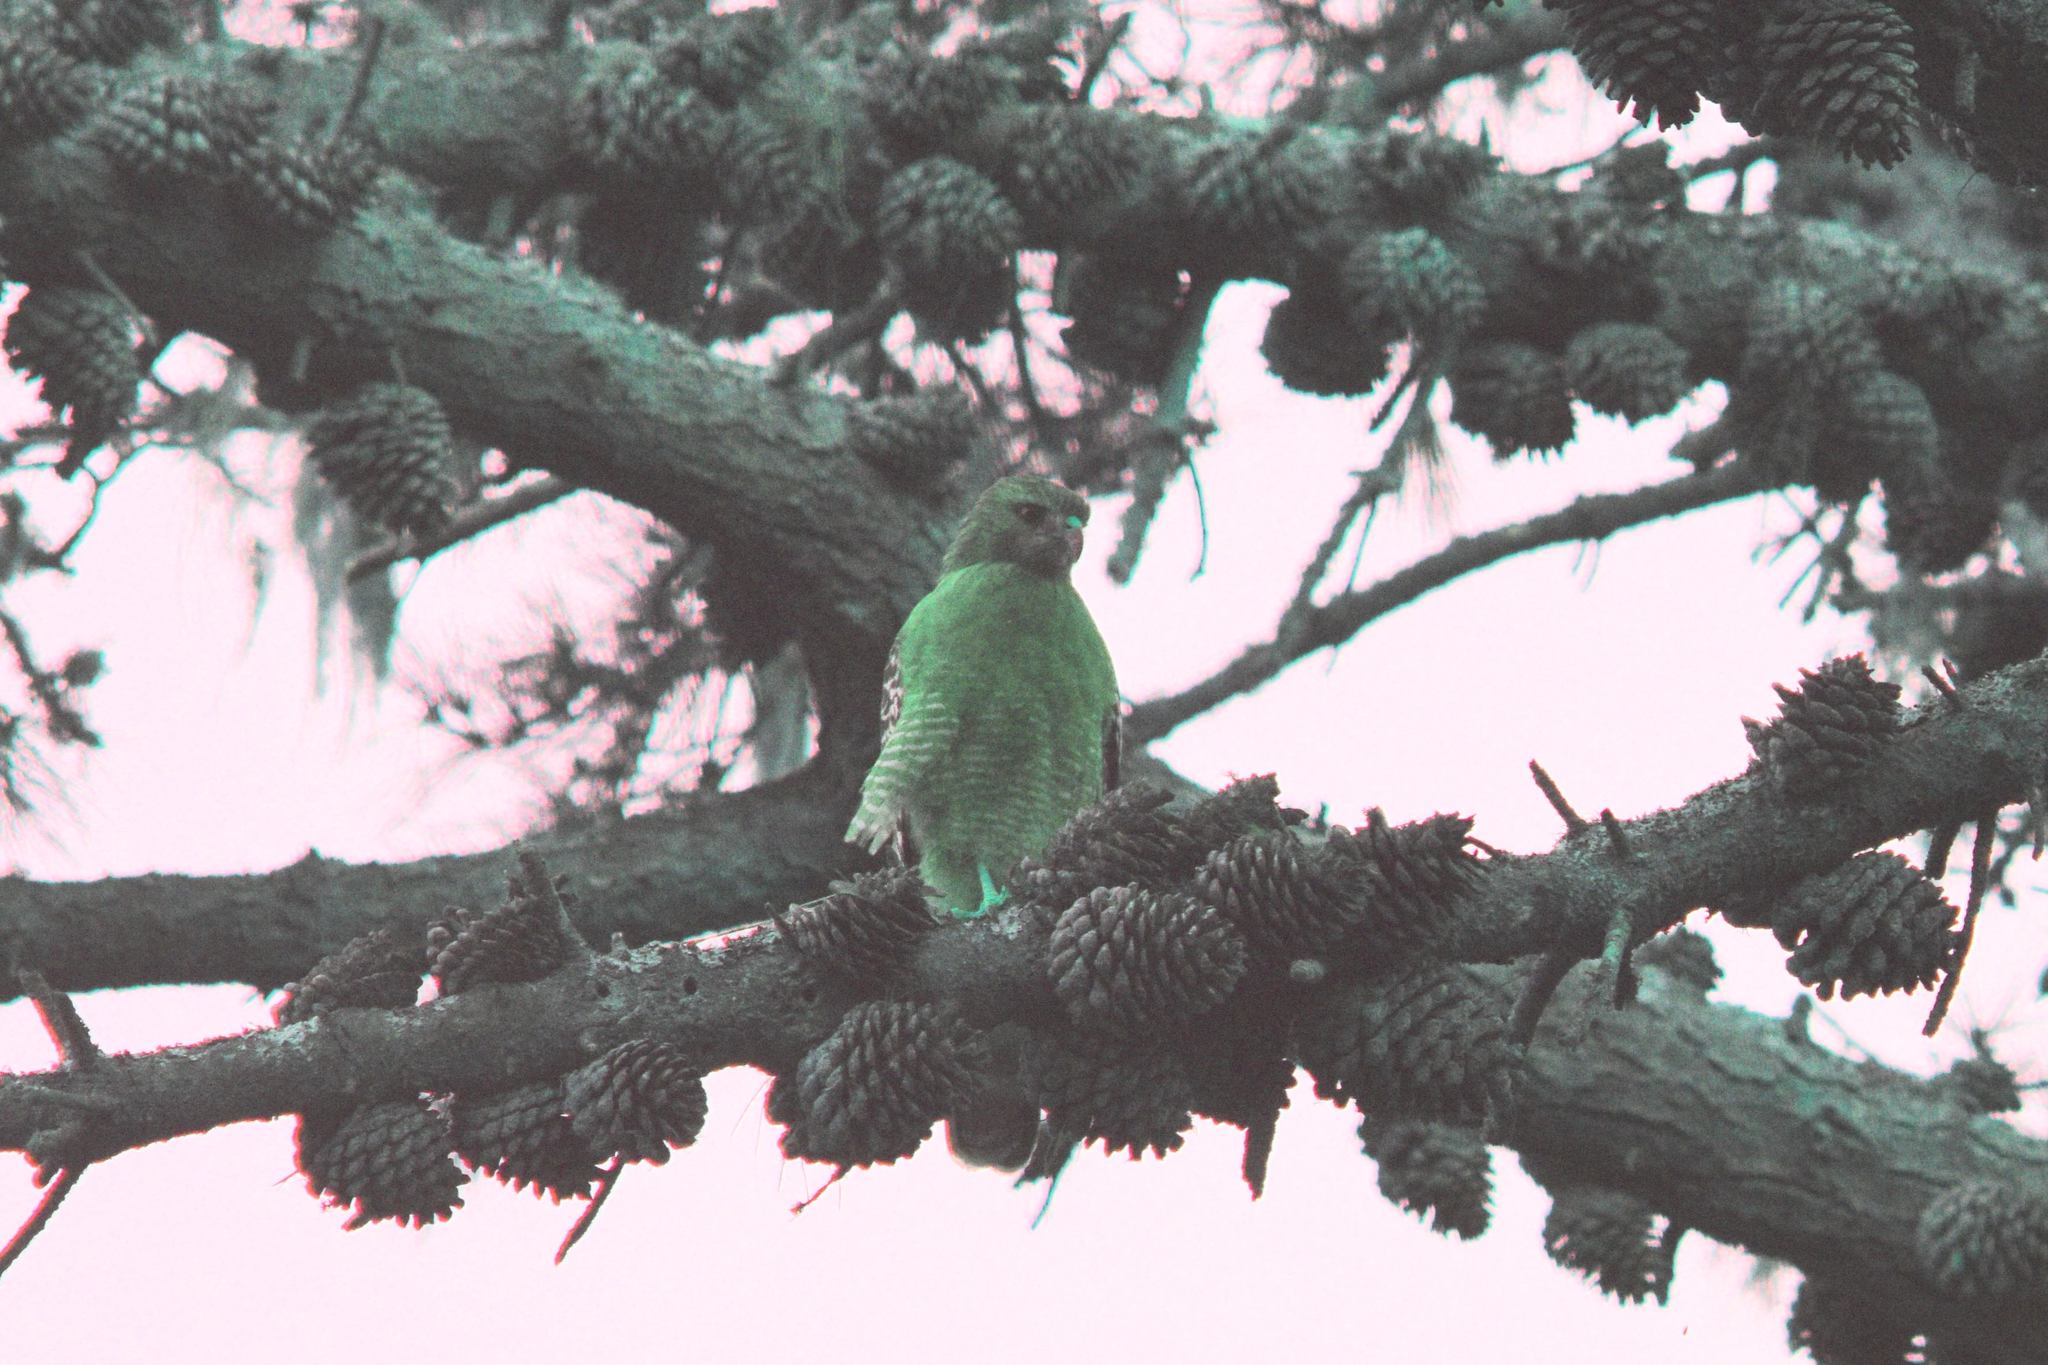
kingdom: Animalia
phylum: Chordata
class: Aves
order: Accipitriformes
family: Accipitridae
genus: Buteo
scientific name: Buteo lineatus
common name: Red-shouldered hawk
